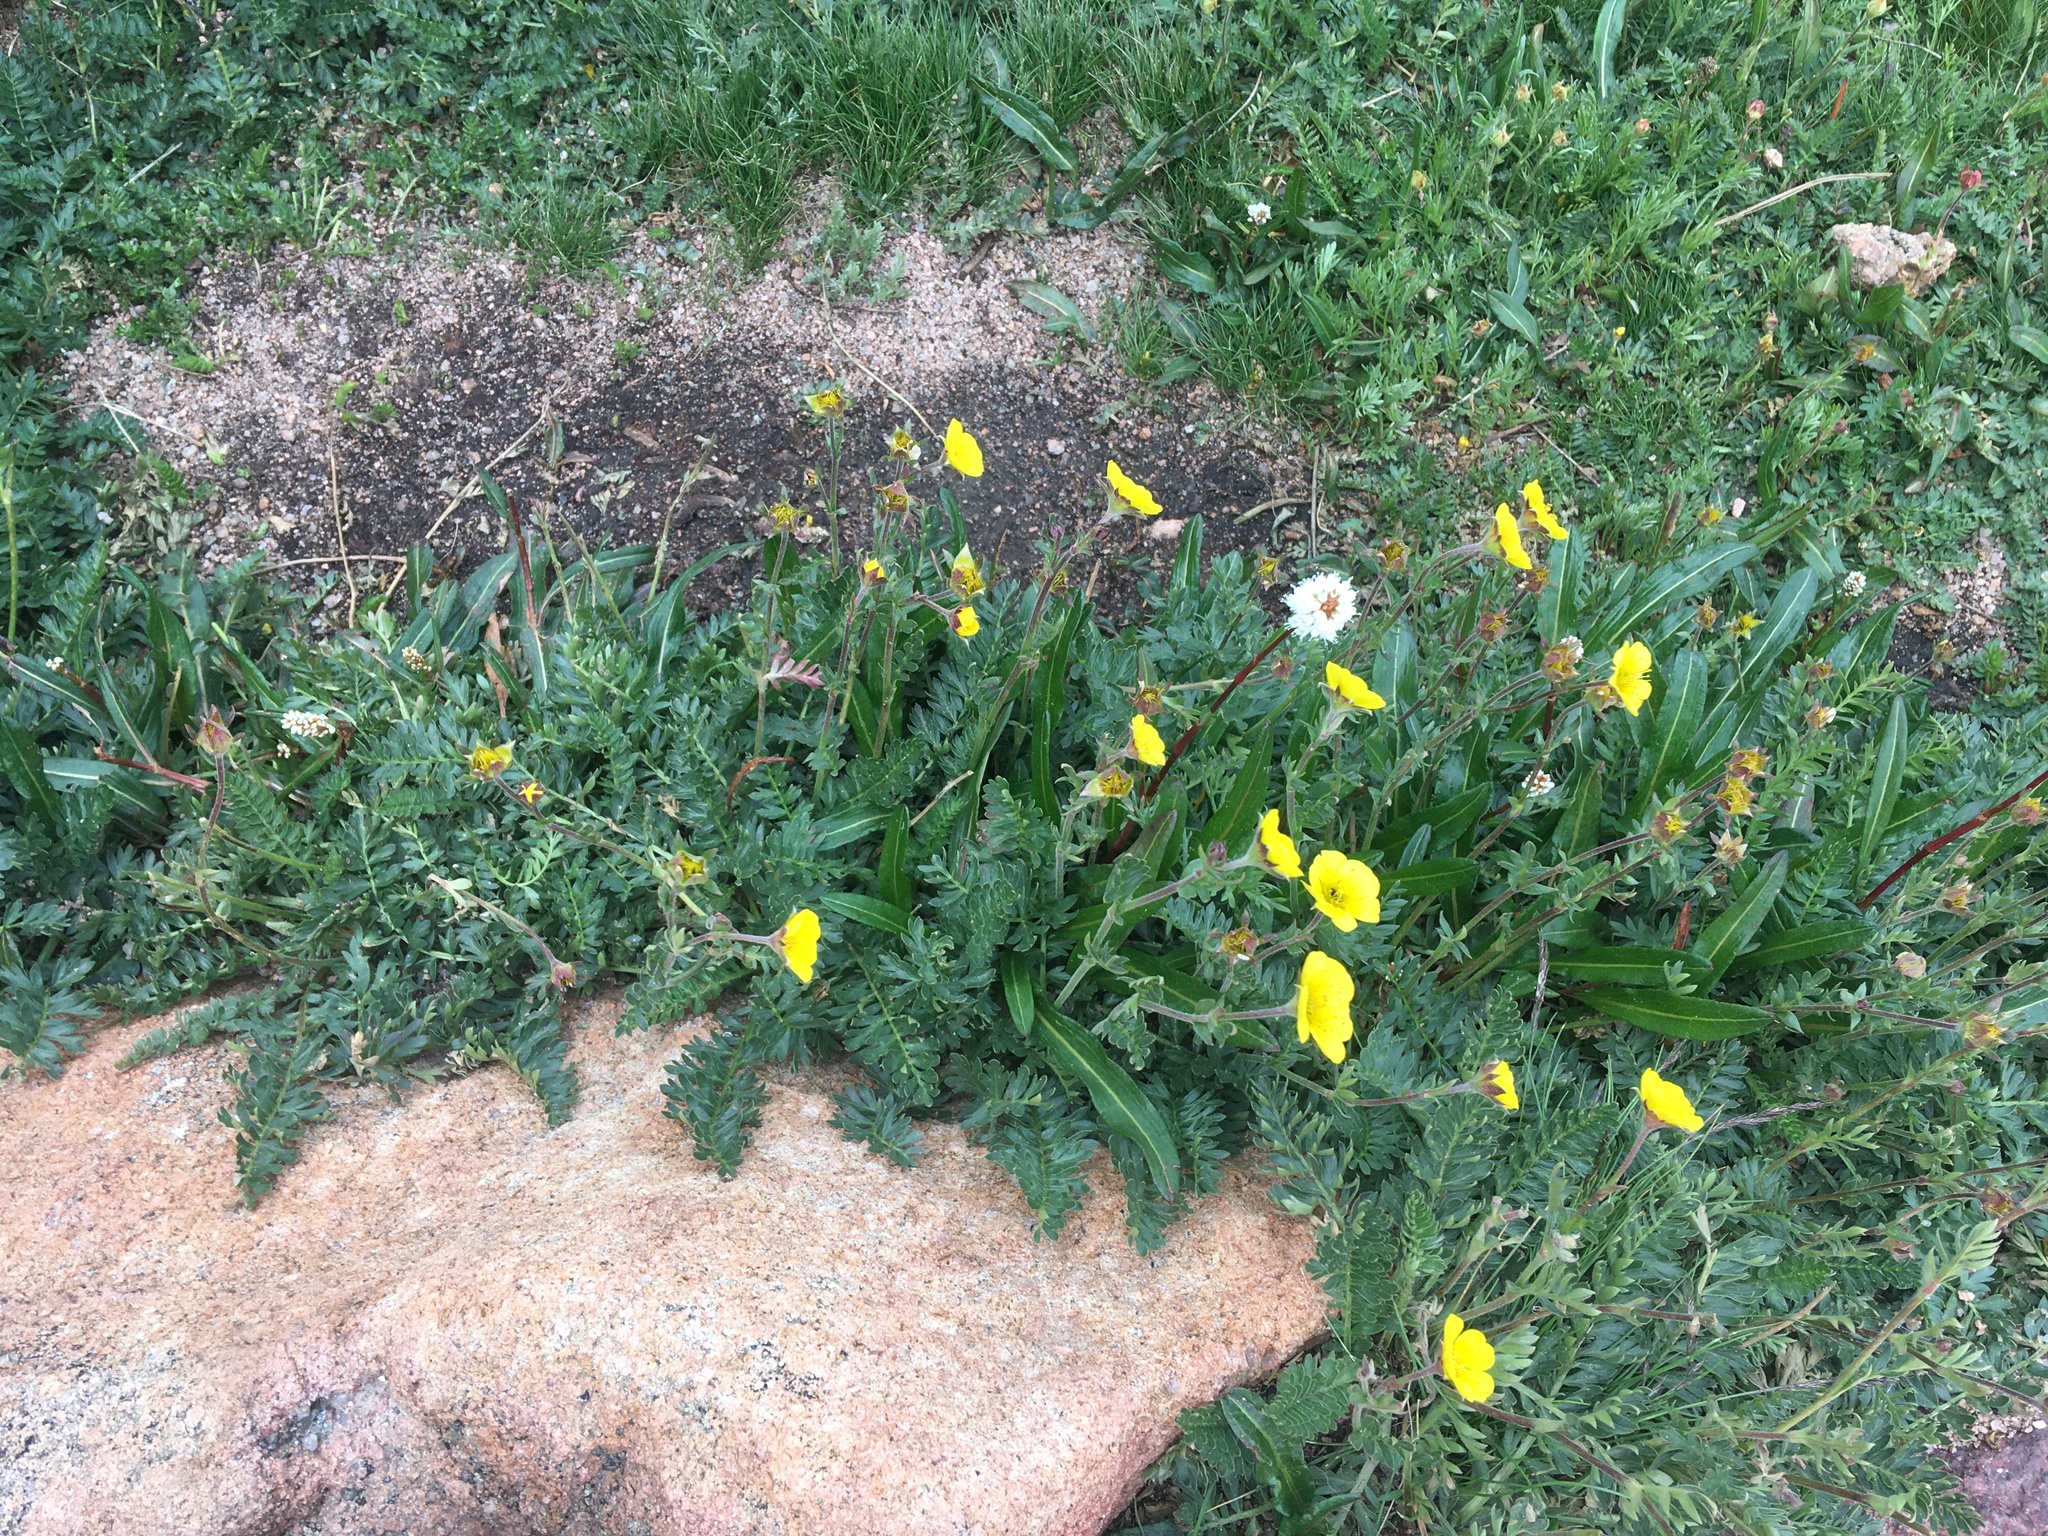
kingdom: Plantae
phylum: Tracheophyta
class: Magnoliopsida
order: Rosales
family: Rosaceae
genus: Geum
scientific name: Geum rossii
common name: Alpine avens
